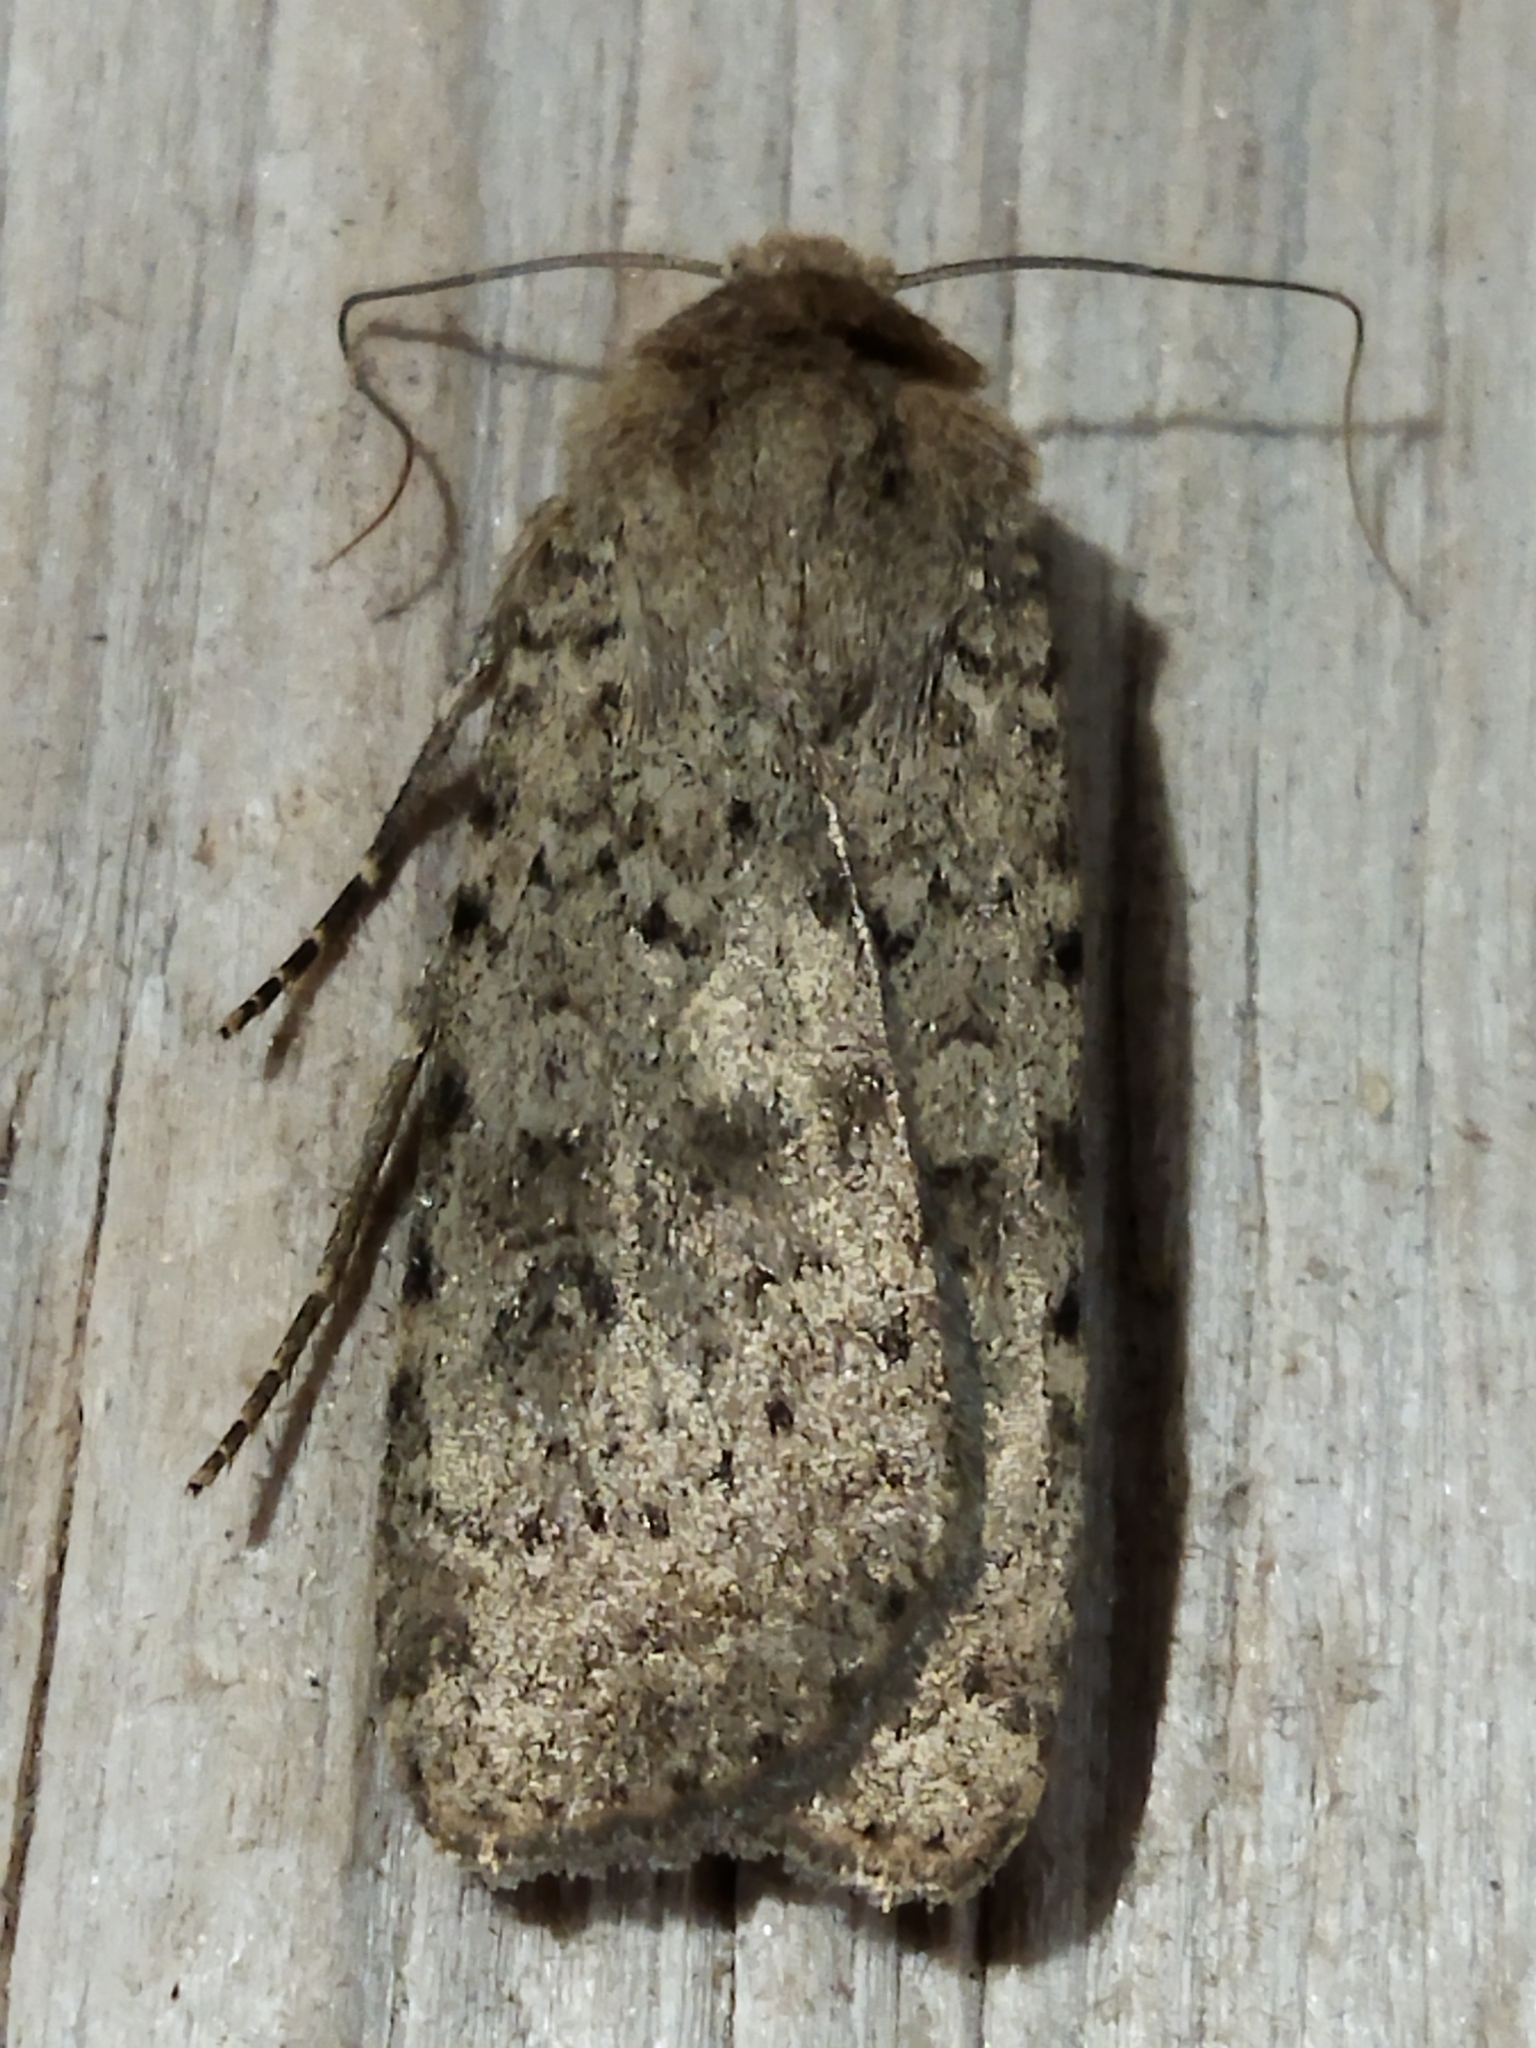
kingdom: Animalia
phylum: Arthropoda
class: Insecta
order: Lepidoptera
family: Noctuidae
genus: Rhyacia
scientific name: Rhyacia arenacea
